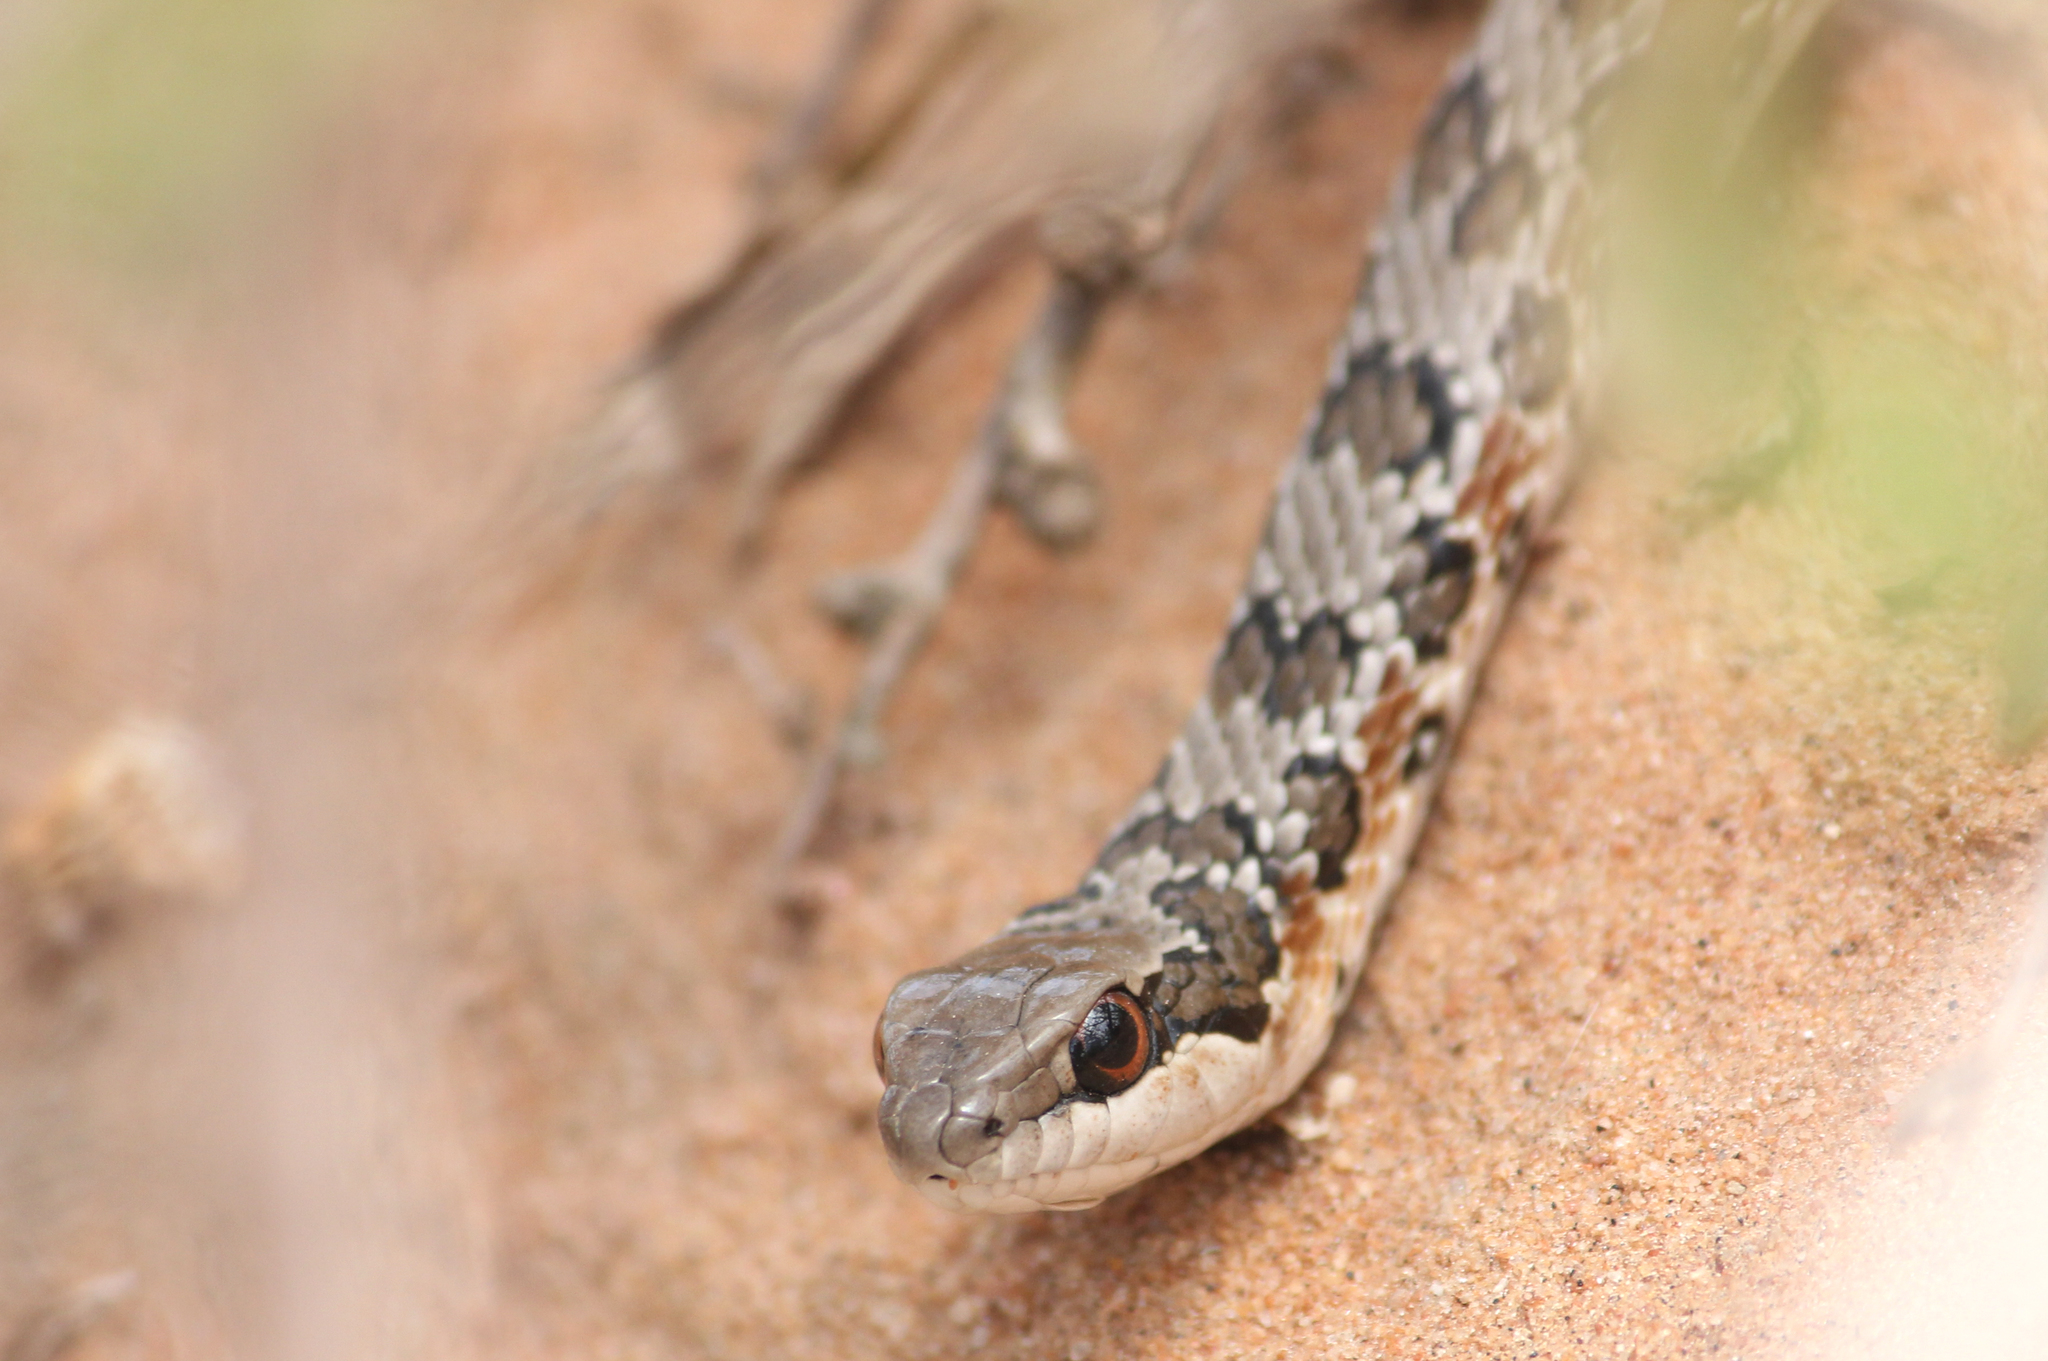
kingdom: Animalia
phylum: Chordata
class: Squamata
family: Psammophiidae
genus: Psammophylax
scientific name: Psammophylax rhombeatus
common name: Rhombic skaapsteker
